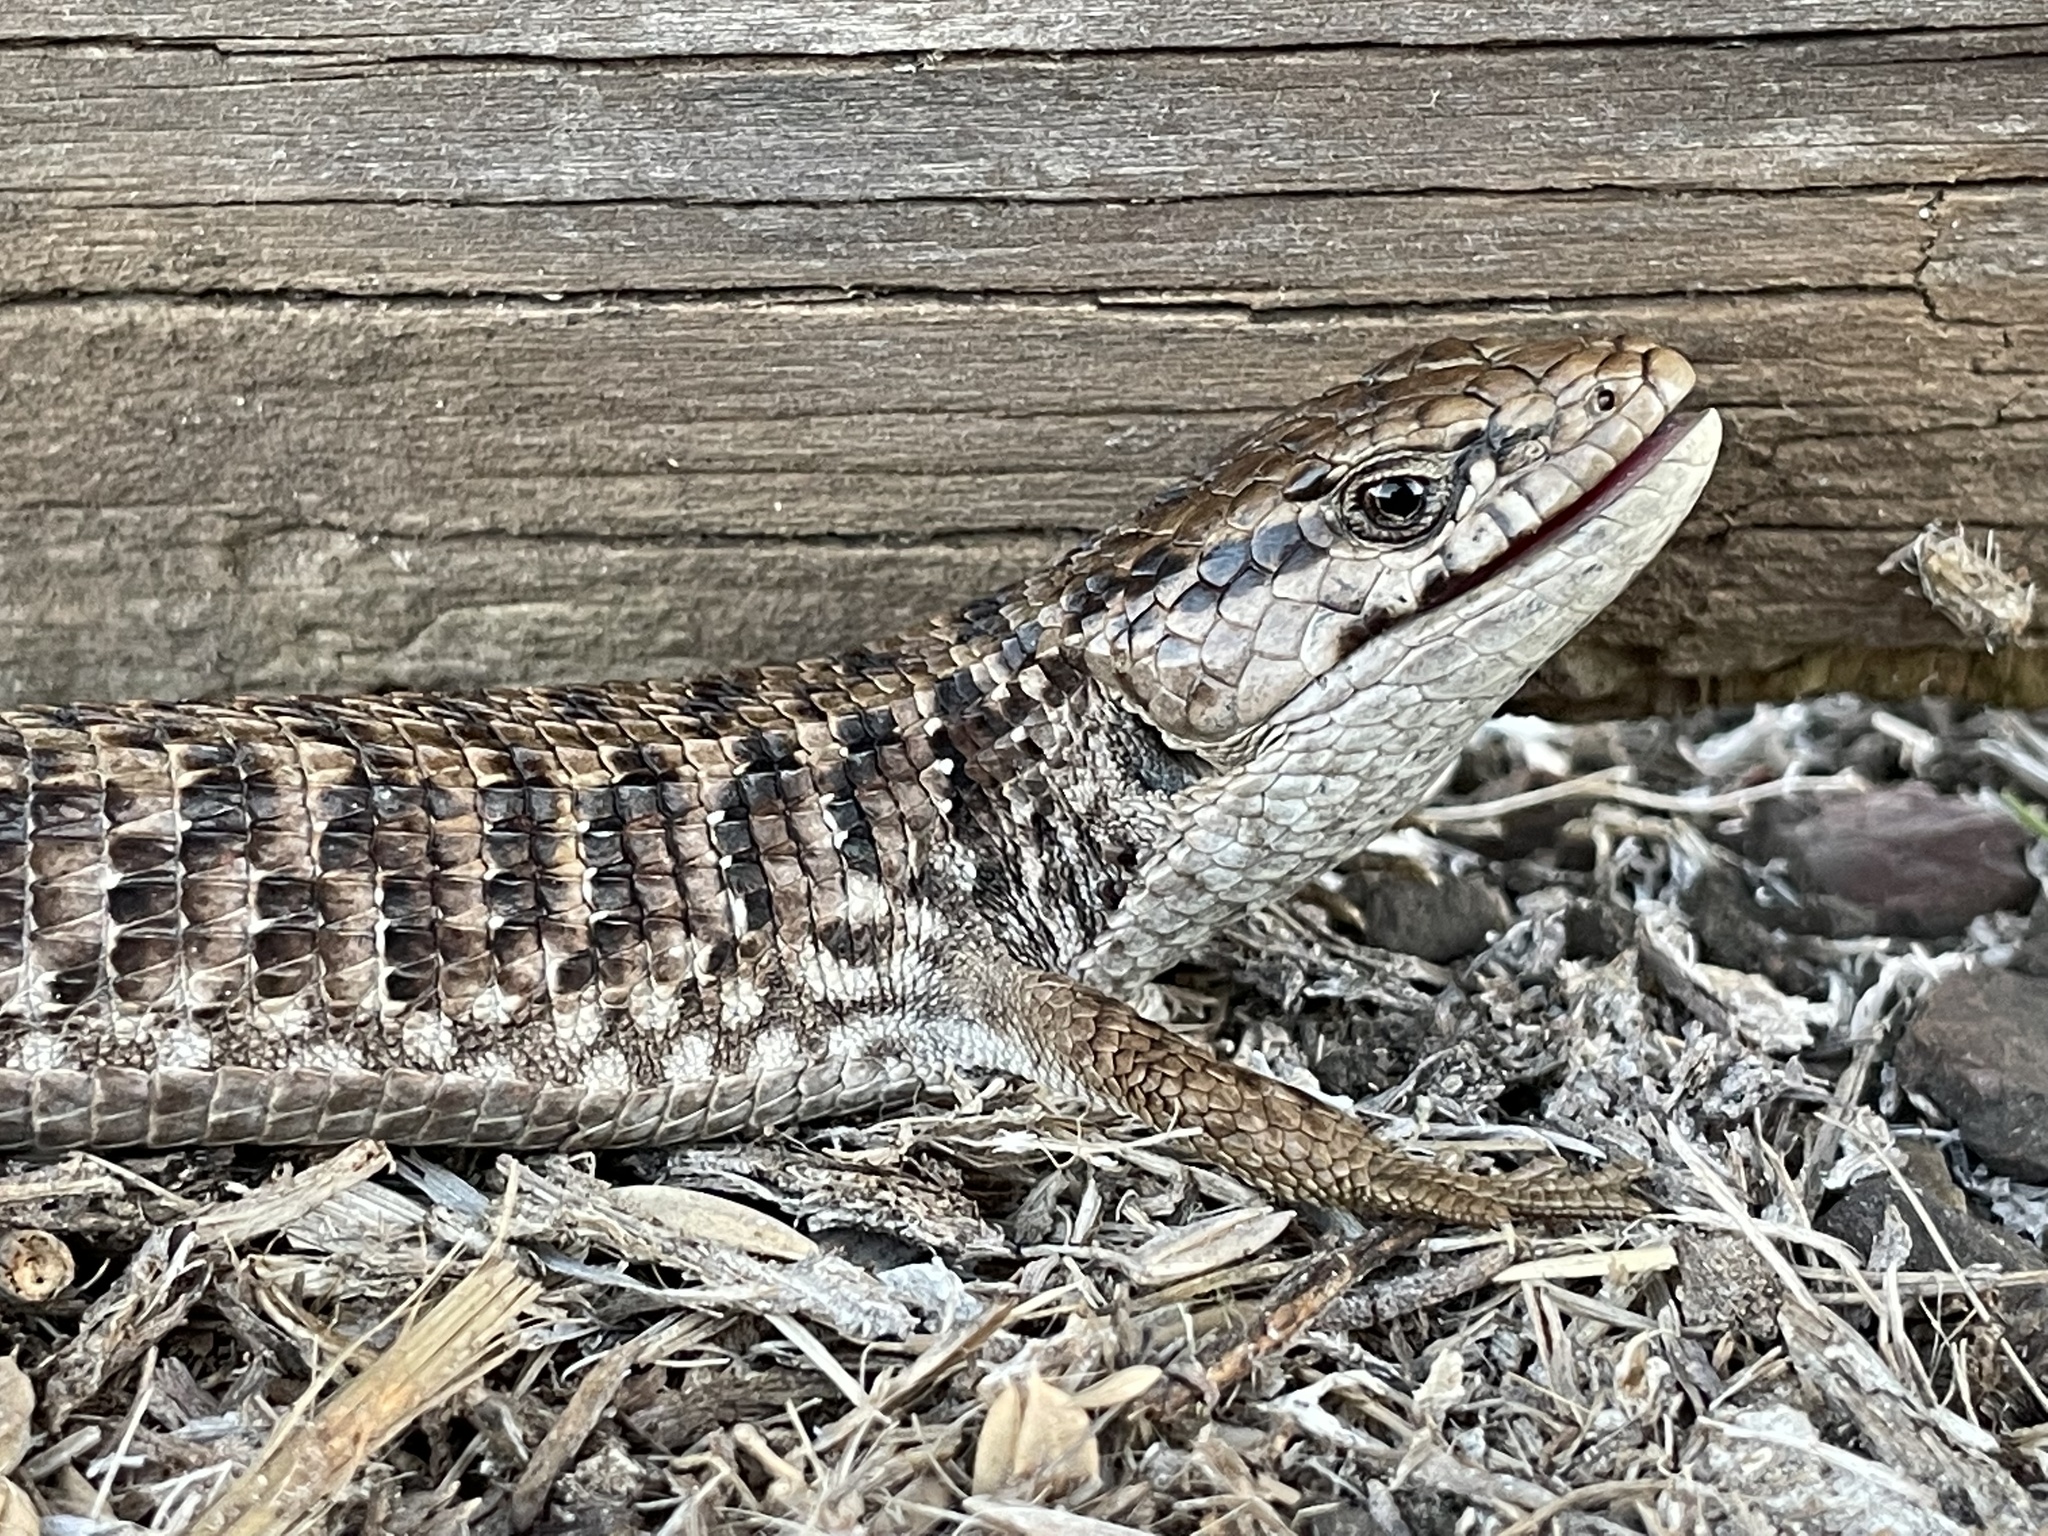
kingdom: Animalia
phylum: Chordata
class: Squamata
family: Anguidae
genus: Elgaria
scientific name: Elgaria coerulea
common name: Northern alligator lizard
